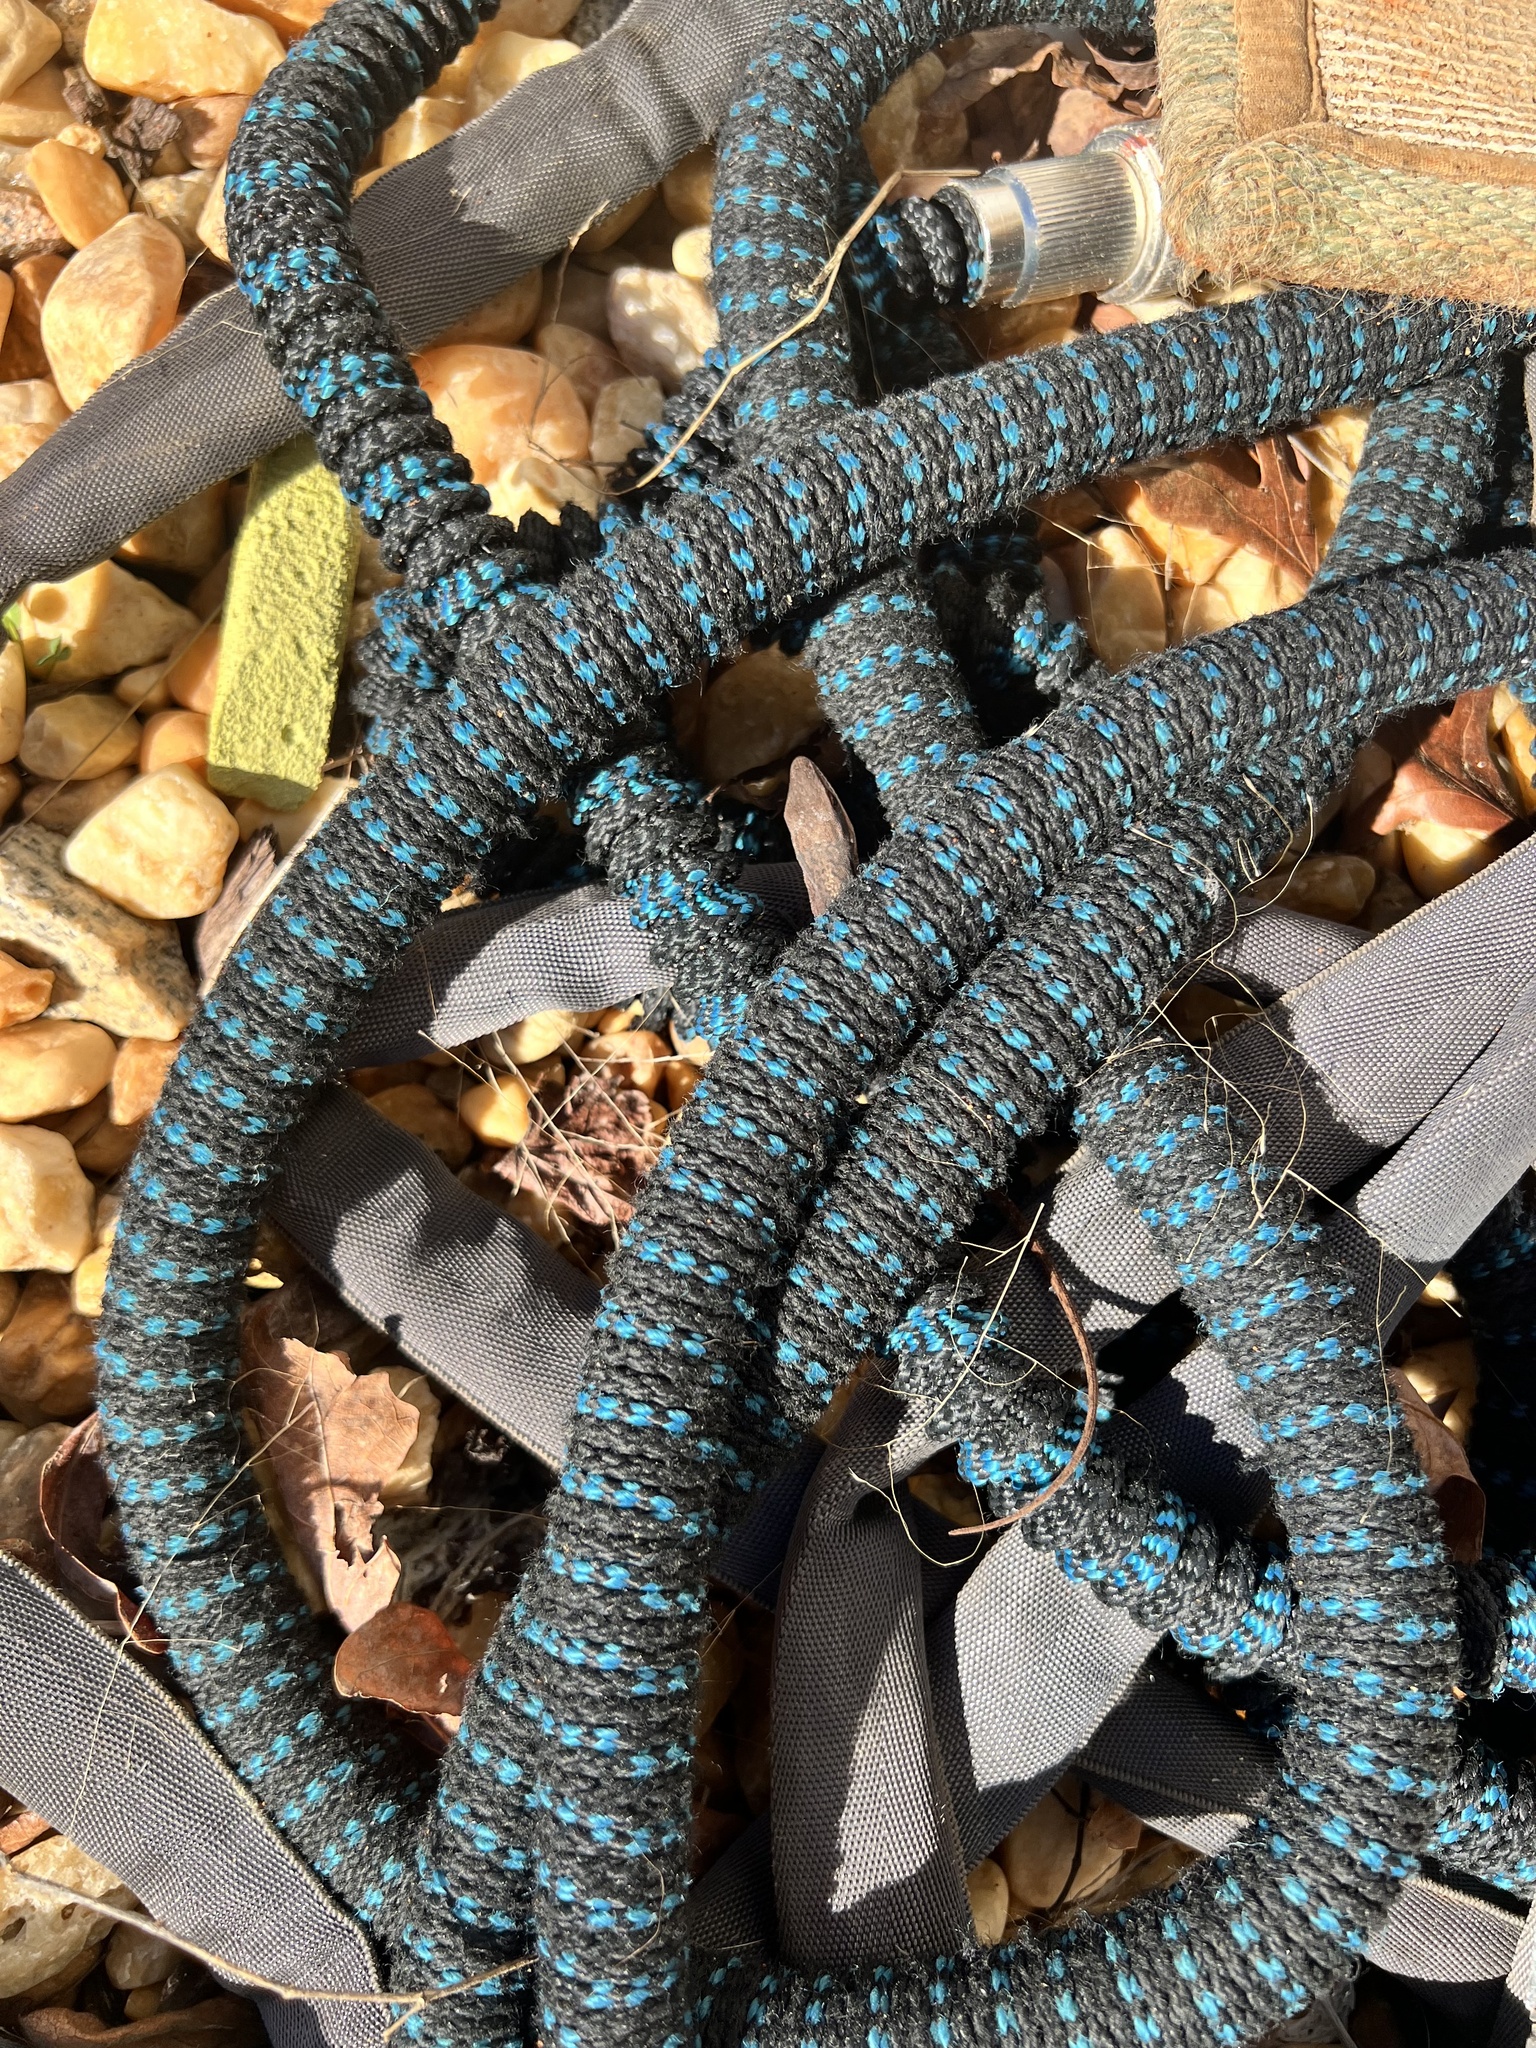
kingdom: Animalia
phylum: Chordata
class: Squamata
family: Dactyloidae
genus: Anolis
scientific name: Anolis carolinensis
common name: Green anole
